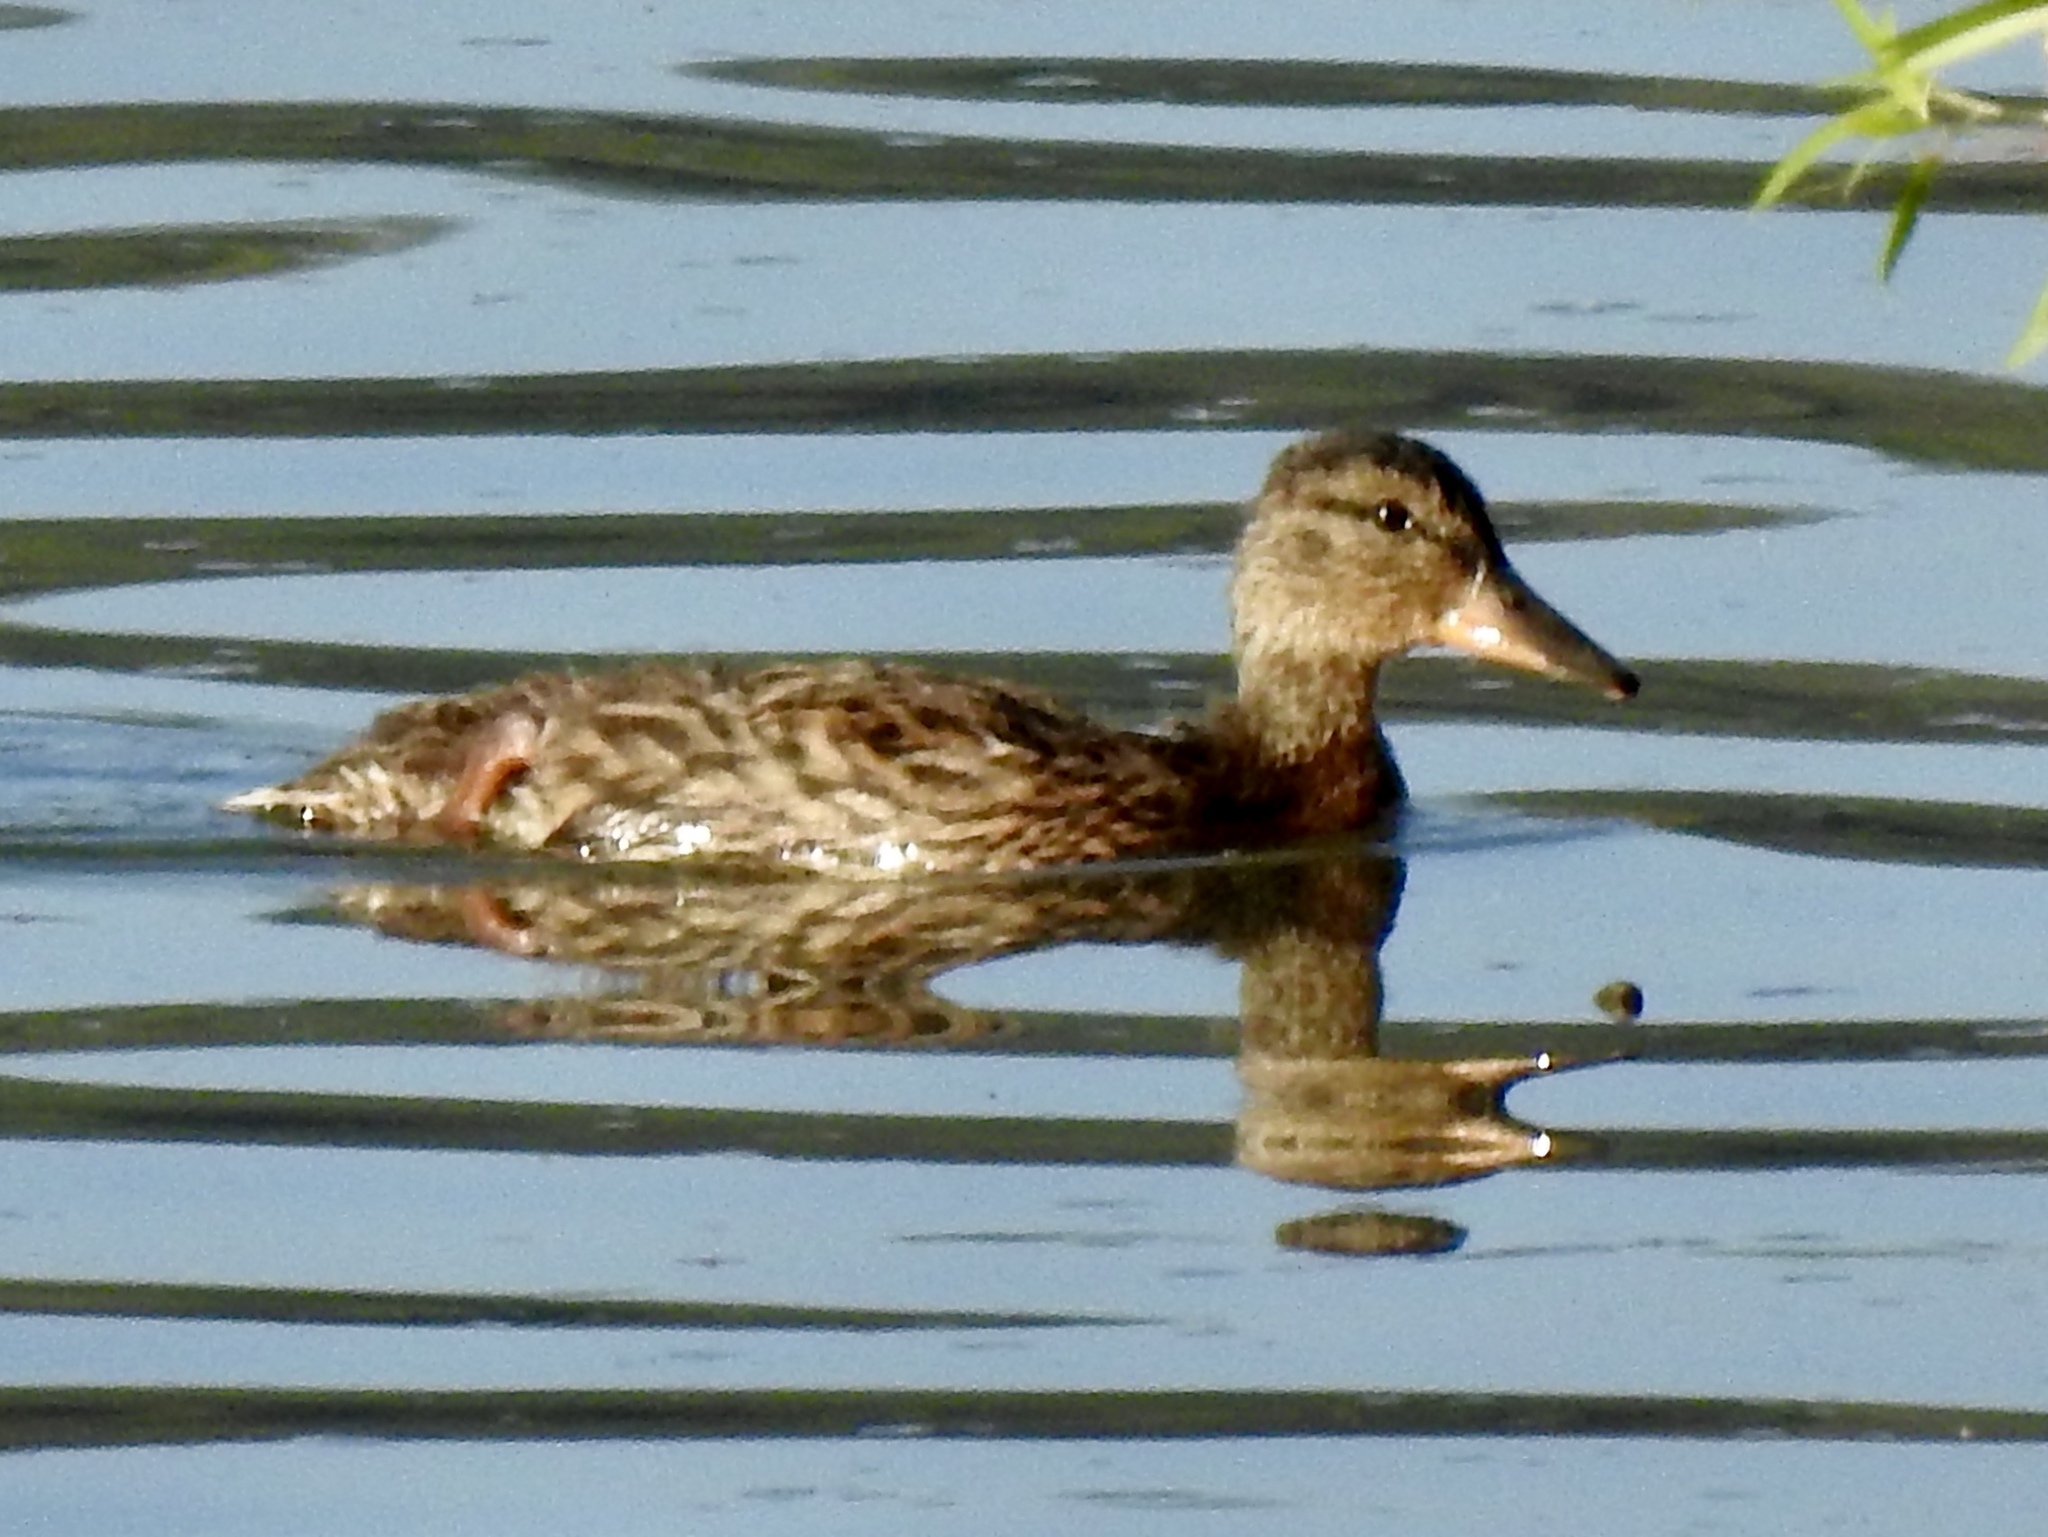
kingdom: Animalia
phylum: Chordata
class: Aves
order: Anseriformes
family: Anatidae
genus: Anas
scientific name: Anas platyrhynchos
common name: Mallard
